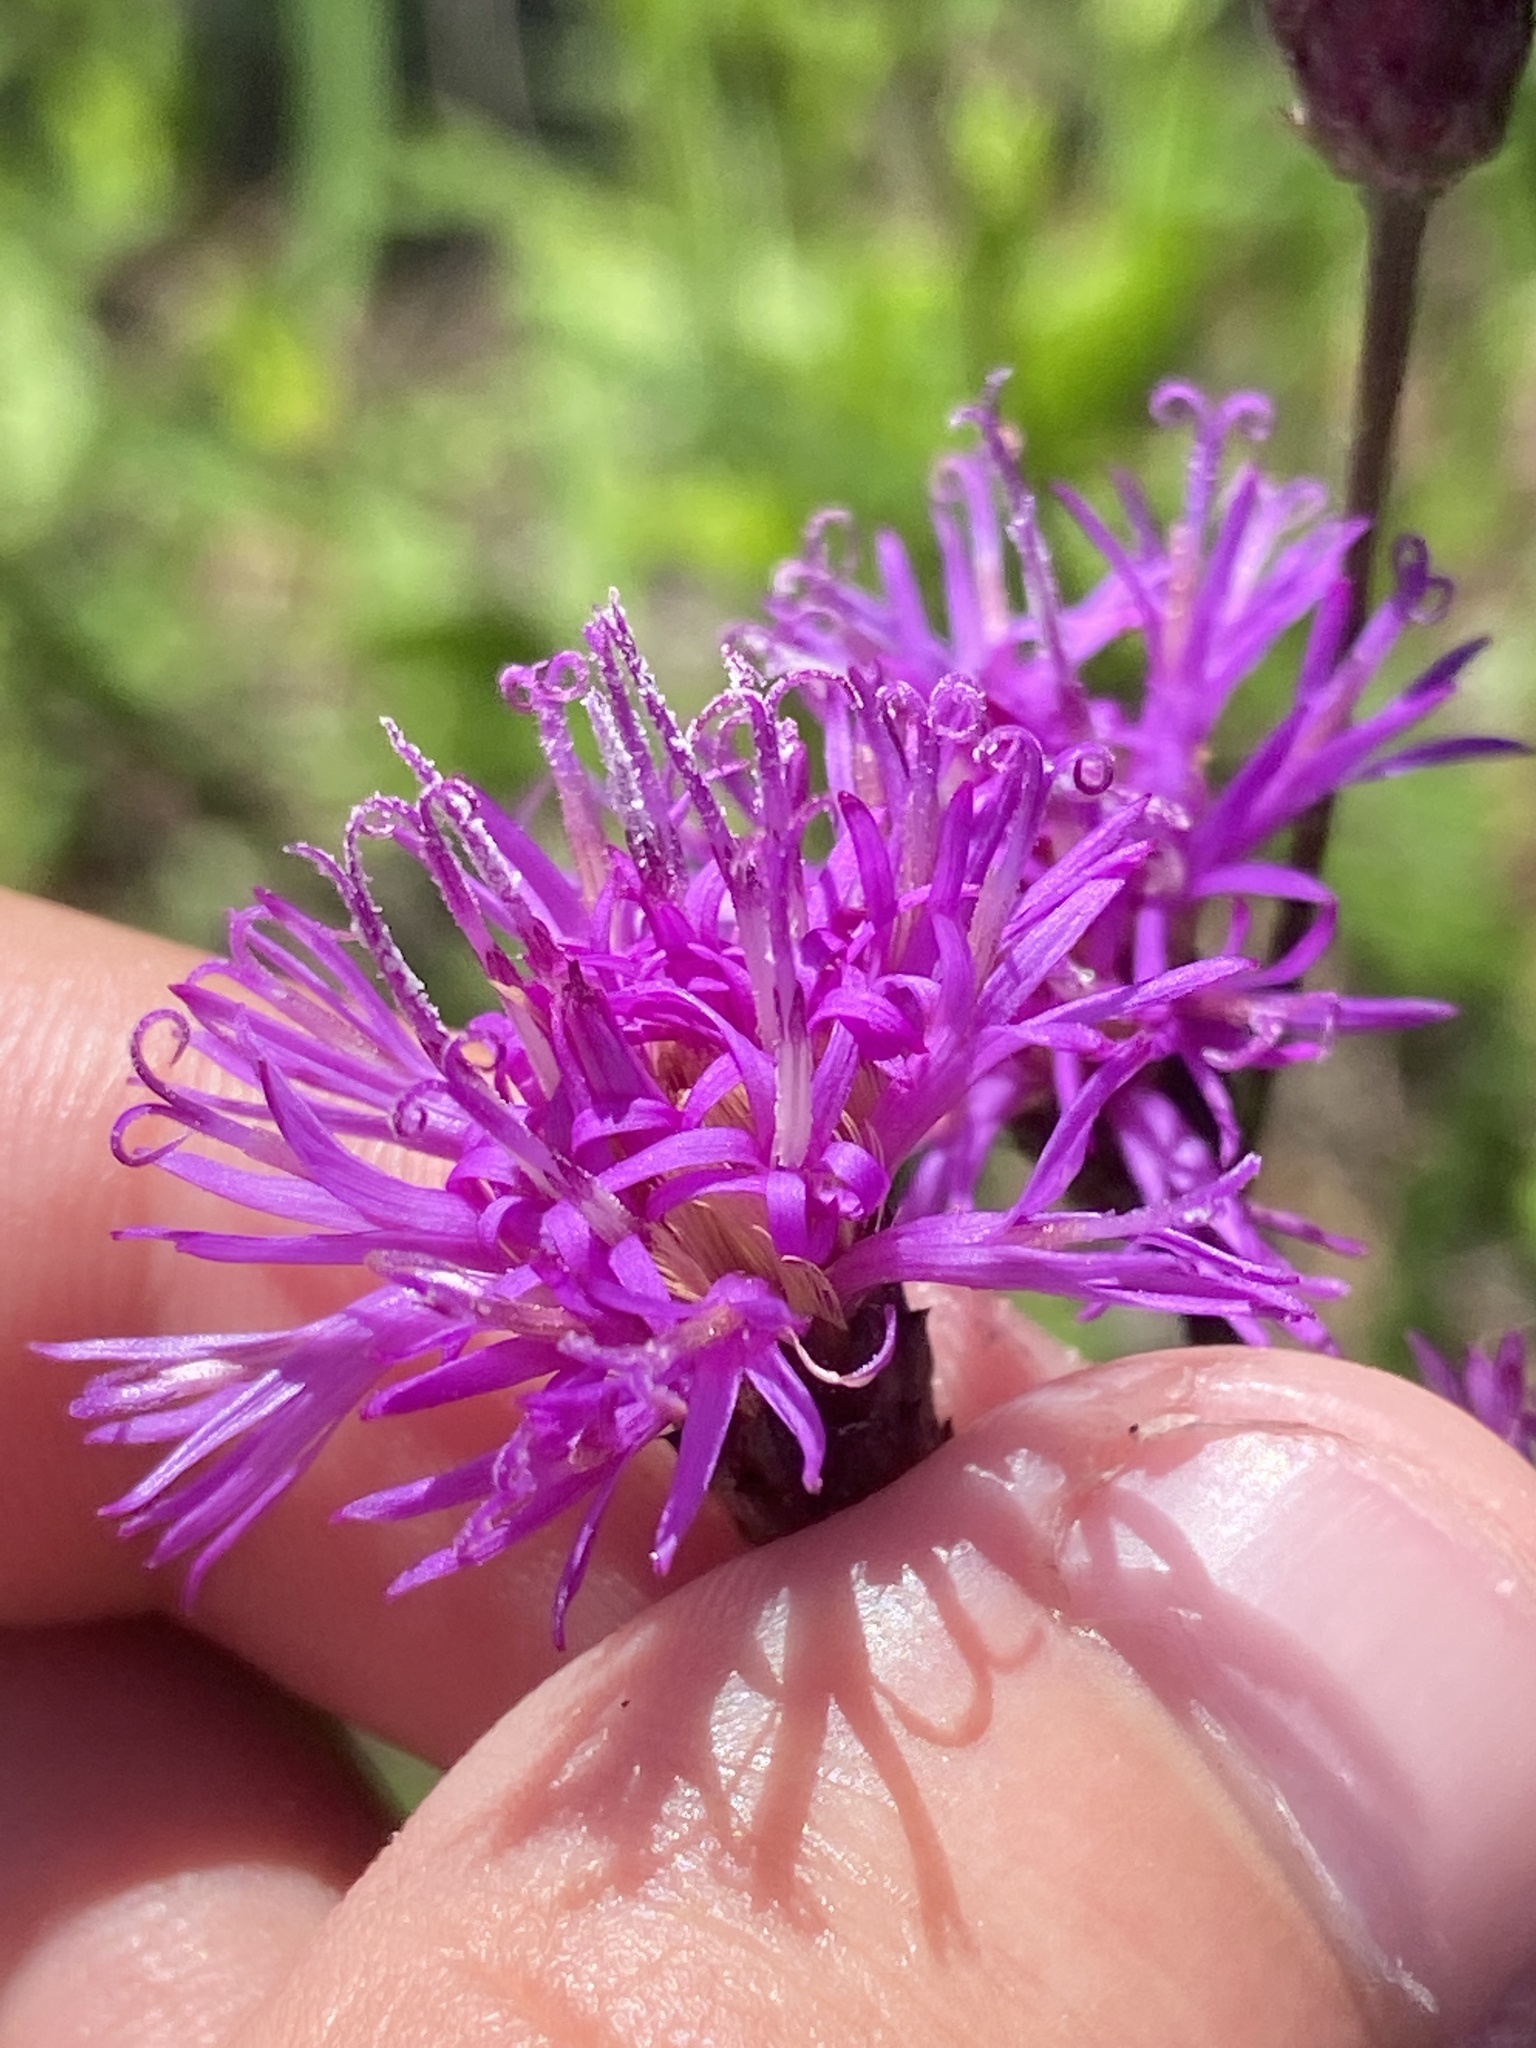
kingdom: Plantae
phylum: Tracheophyta
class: Magnoliopsida
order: Asterales
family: Asteraceae
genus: Vernonia
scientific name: Vernonia blodgettii
